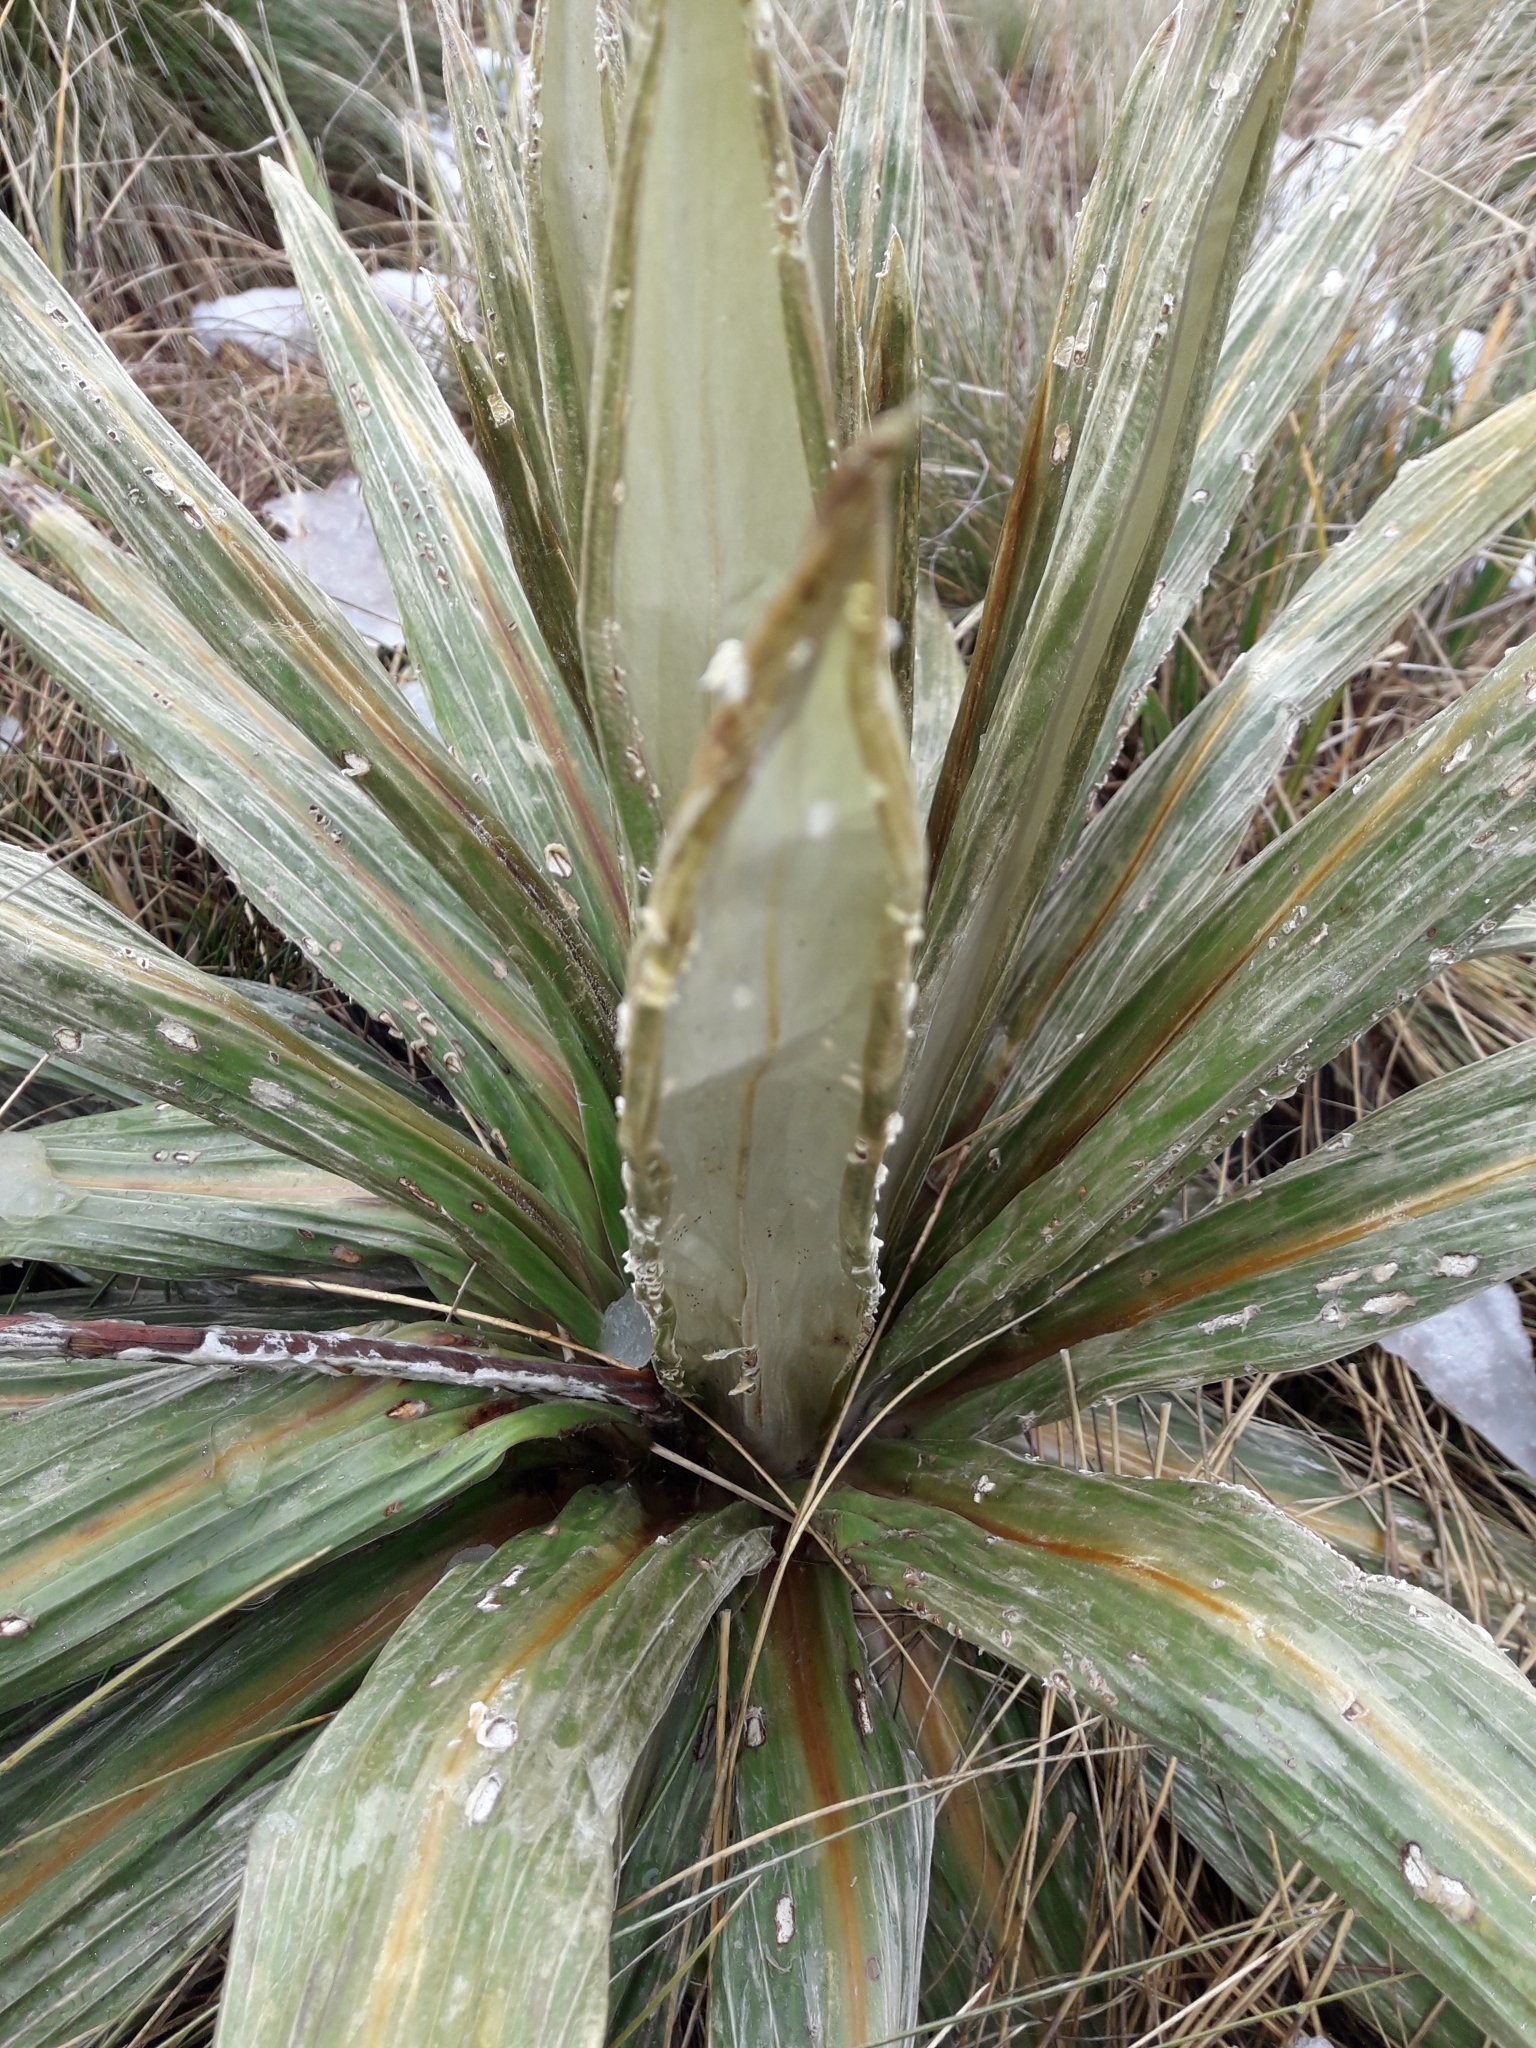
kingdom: Plantae
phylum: Tracheophyta
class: Magnoliopsida
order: Asterales
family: Asteraceae
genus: Celmisia
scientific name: Celmisia coriacea
